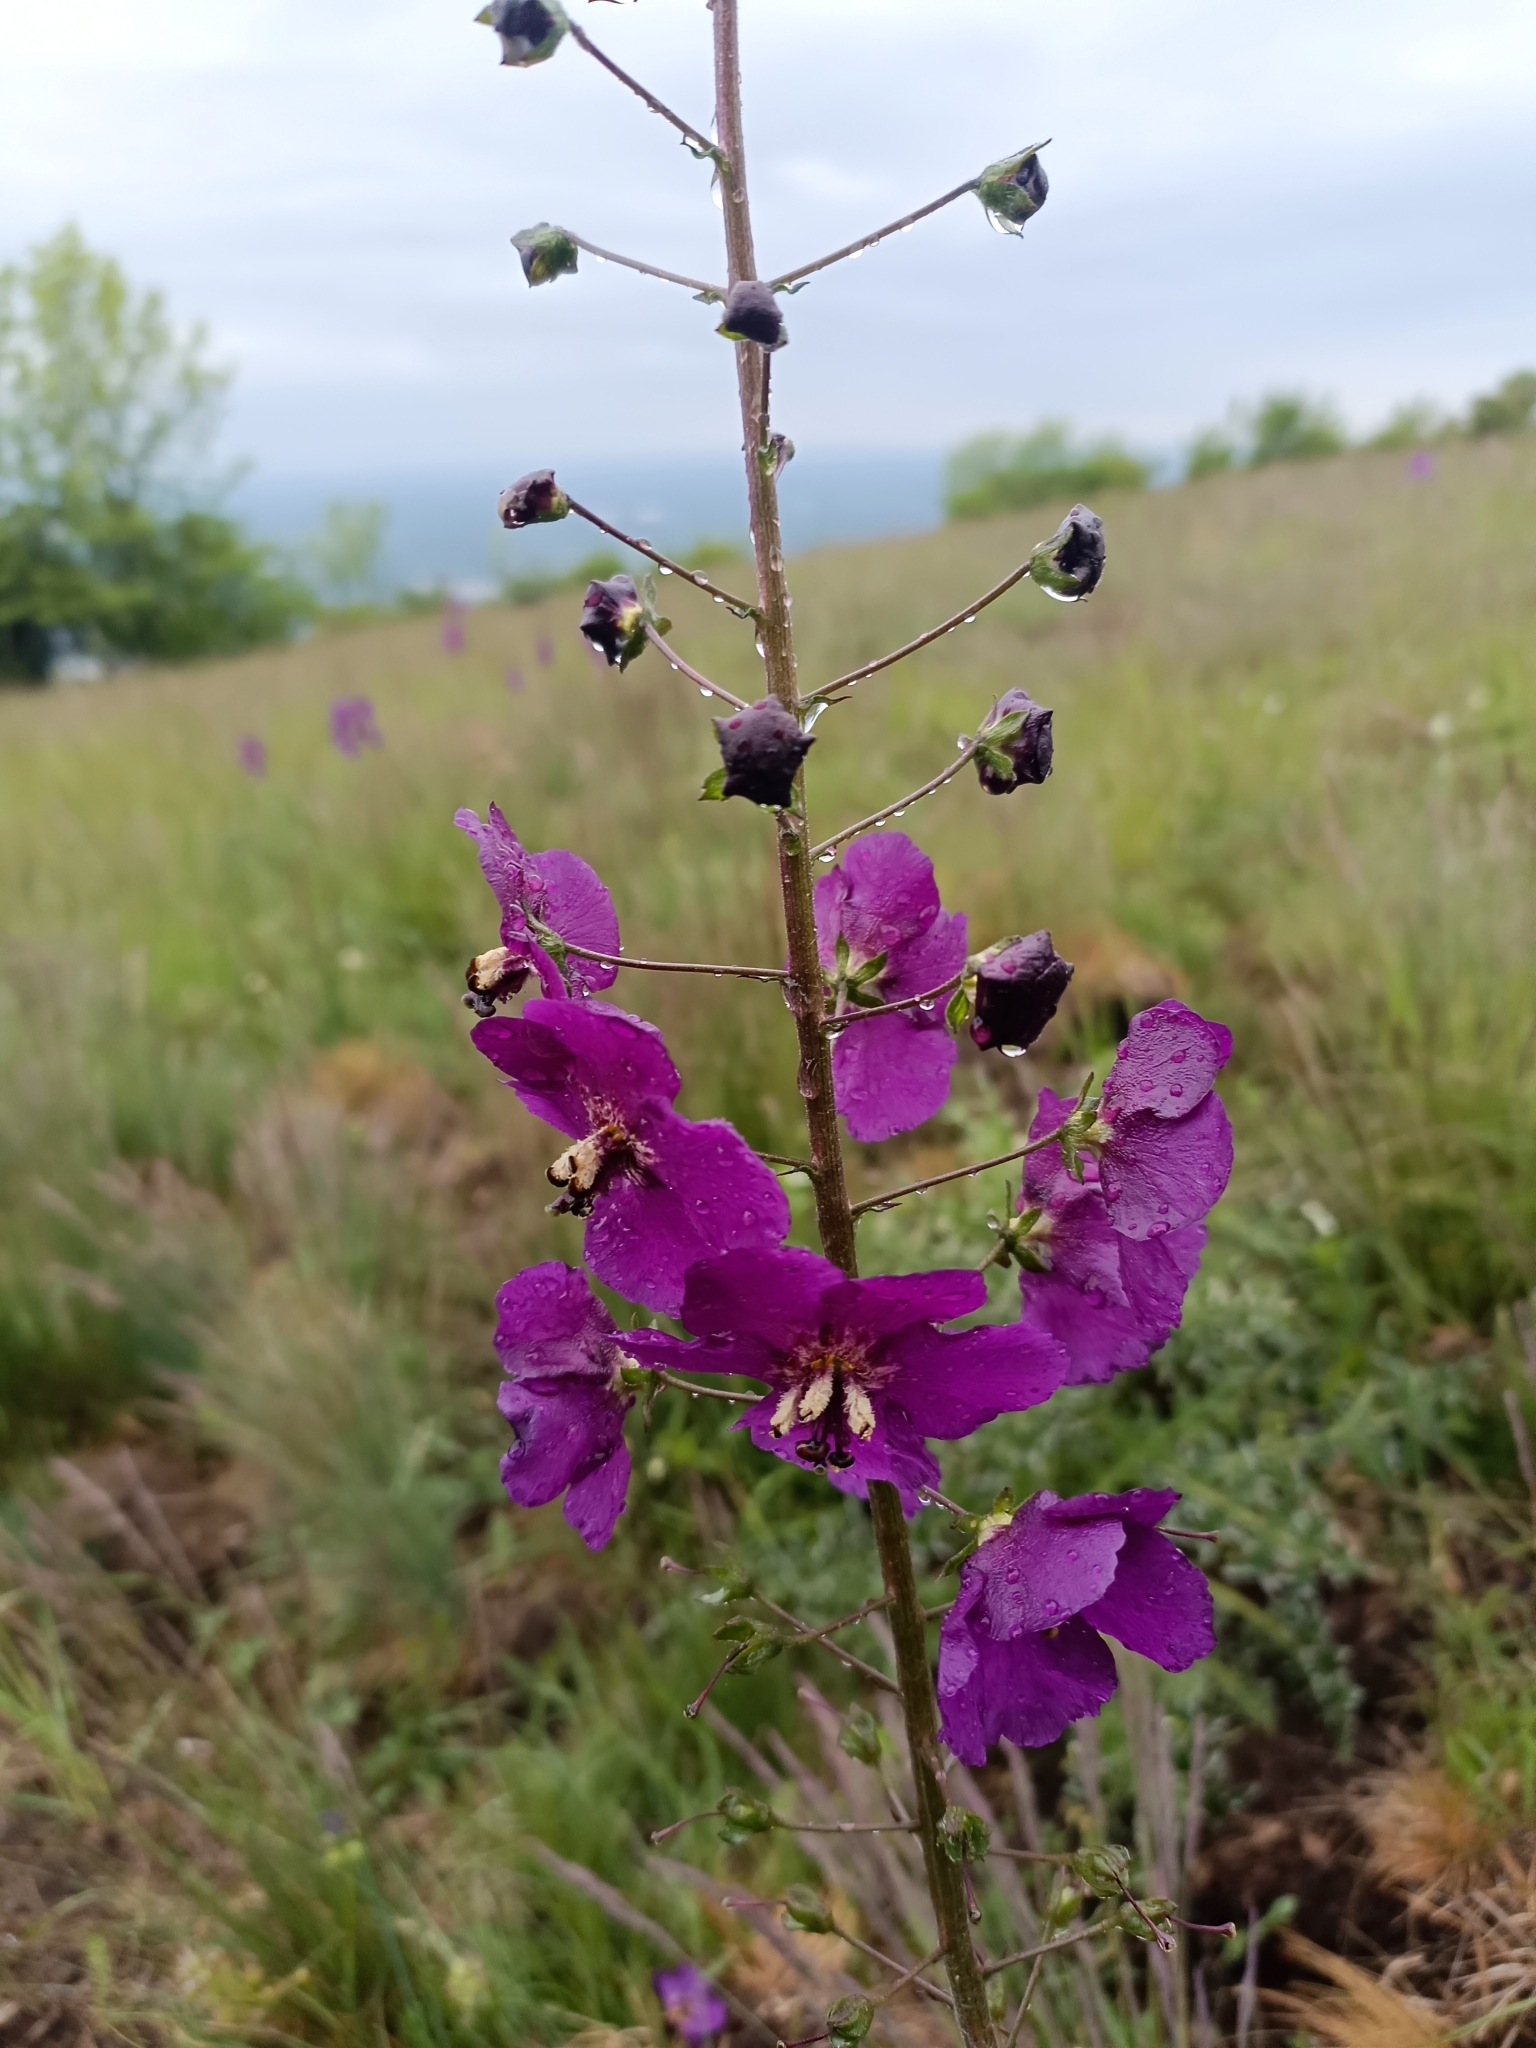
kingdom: Plantae
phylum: Tracheophyta
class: Magnoliopsida
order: Lamiales
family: Scrophulariaceae
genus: Verbascum
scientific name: Verbascum phoeniceum
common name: Purple mullein
